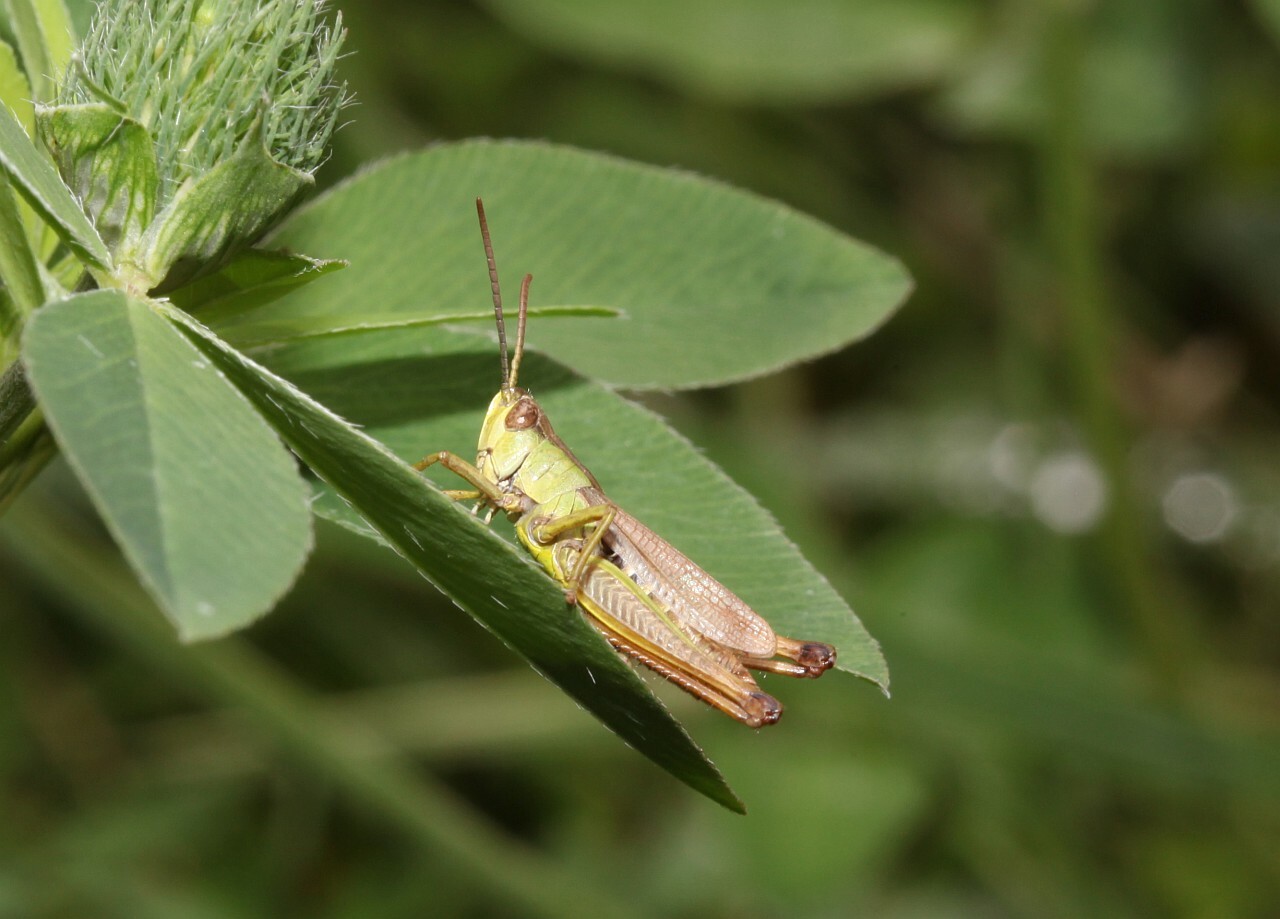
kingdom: Animalia
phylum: Arthropoda
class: Insecta
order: Orthoptera
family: Acrididae
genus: Pseudochorthippus
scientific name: Pseudochorthippus parallelus
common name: Meadow grasshopper
